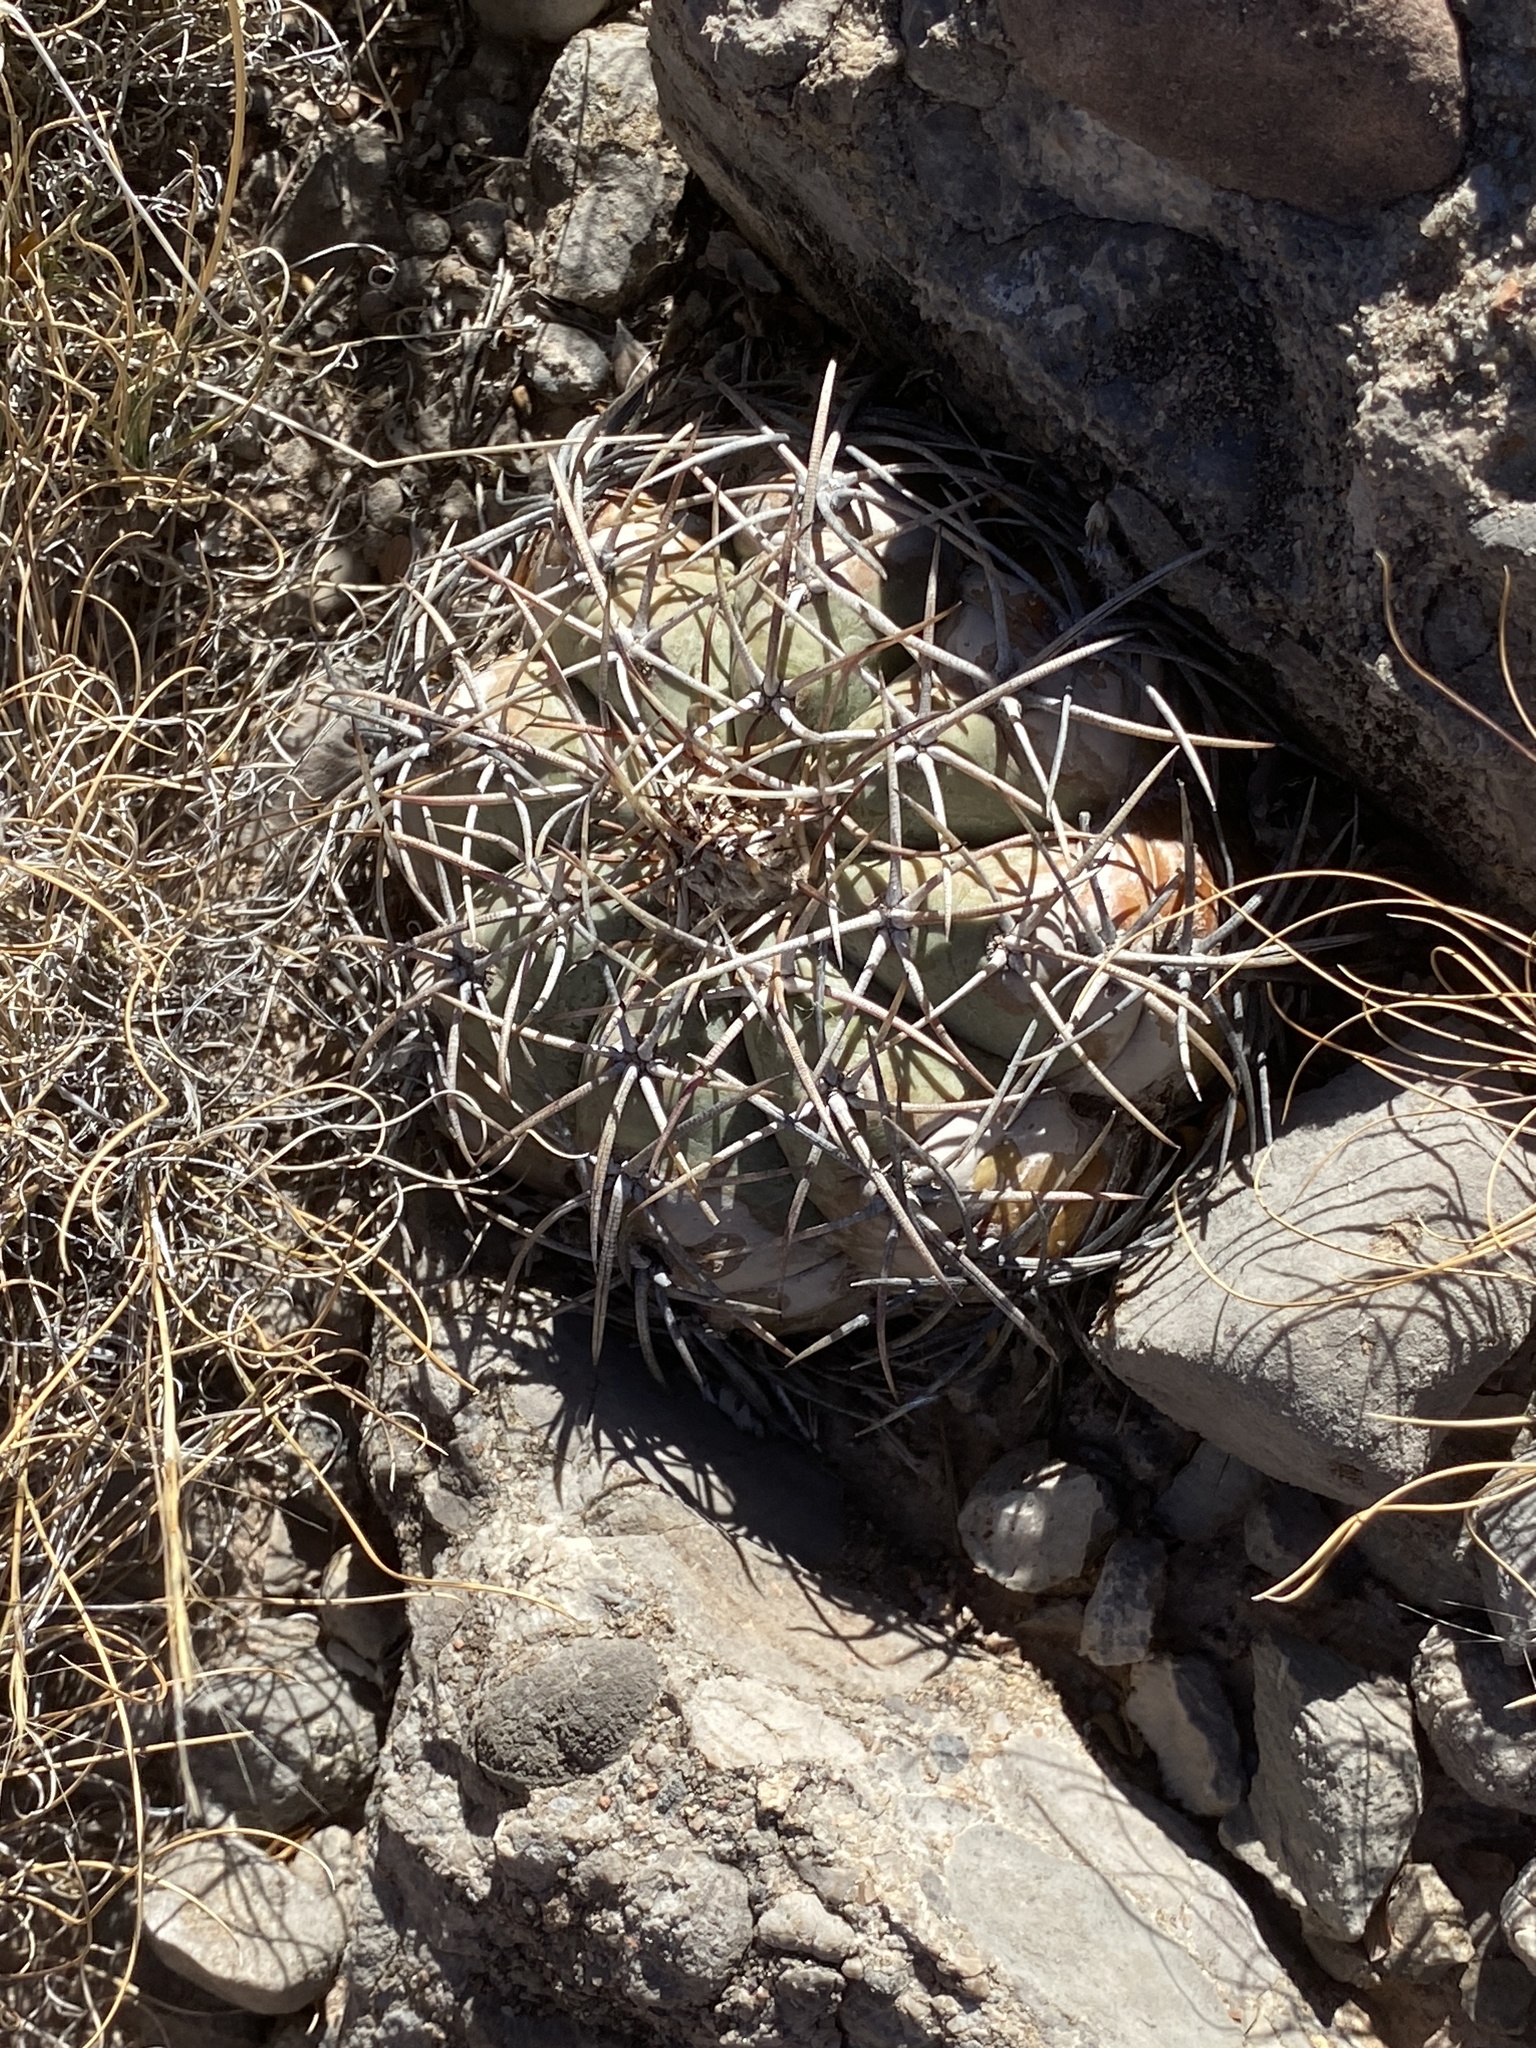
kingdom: Plantae
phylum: Tracheophyta
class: Magnoliopsida
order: Caryophyllales
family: Cactaceae
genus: Echinocactus
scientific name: Echinocactus horizonthalonius
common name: Devilshead
